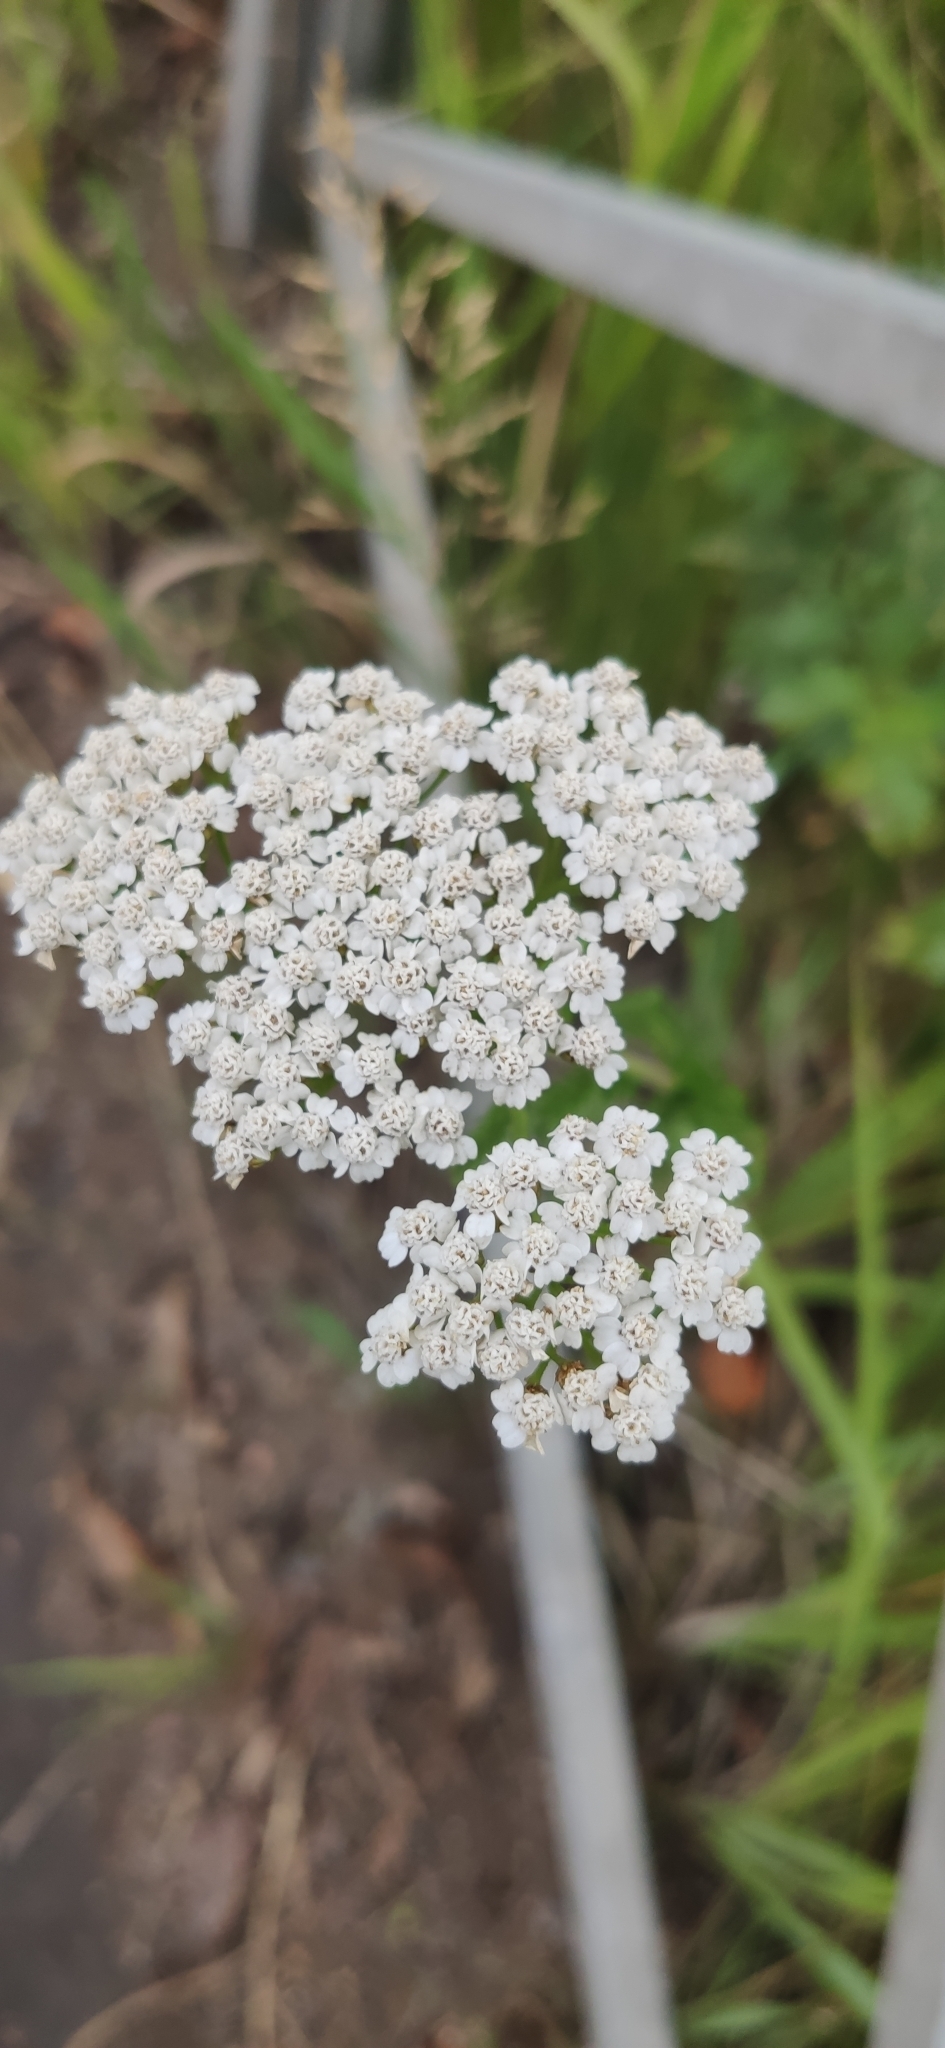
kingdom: Plantae
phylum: Tracheophyta
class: Magnoliopsida
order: Asterales
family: Asteraceae
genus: Achillea
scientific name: Achillea millefolium
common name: Yarrow
